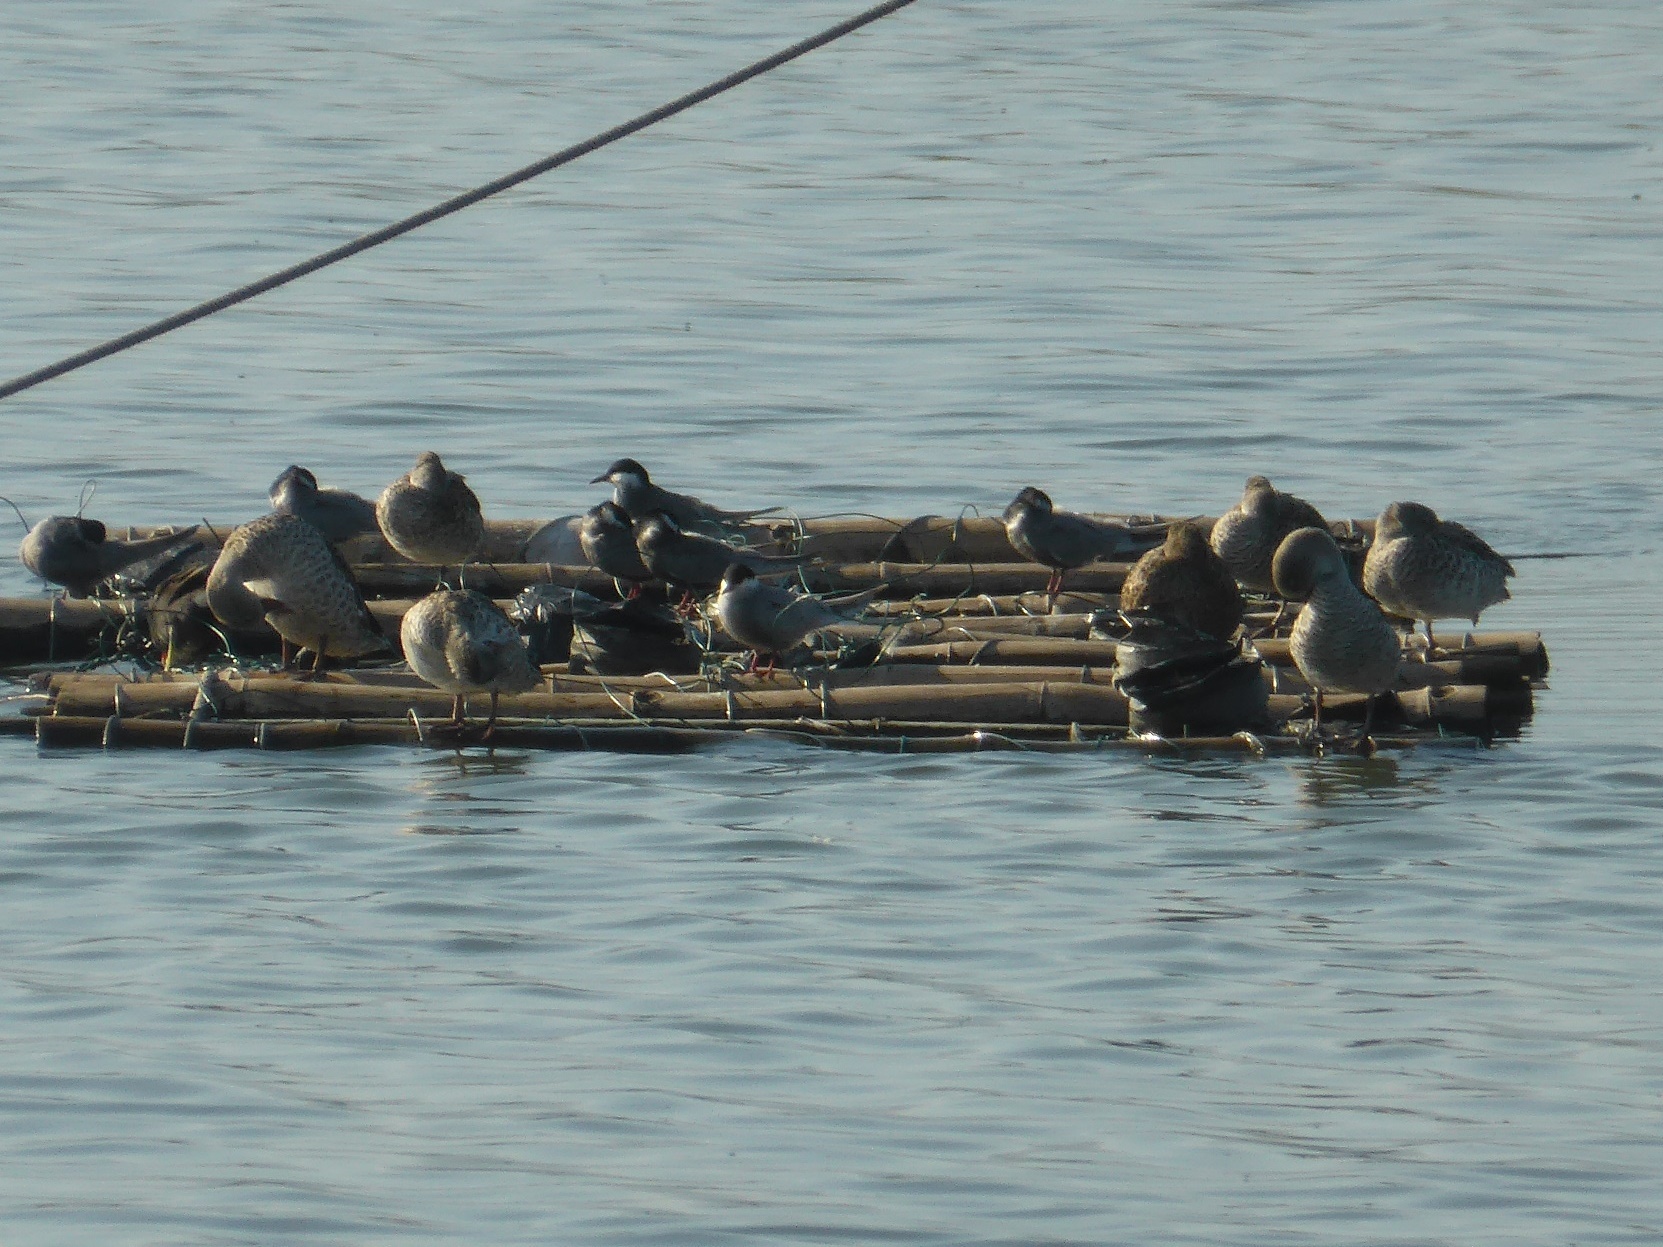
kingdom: Animalia
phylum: Chordata
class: Aves
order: Charadriiformes
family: Laridae
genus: Chlidonias
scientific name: Chlidonias hybrida
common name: Whiskered tern
